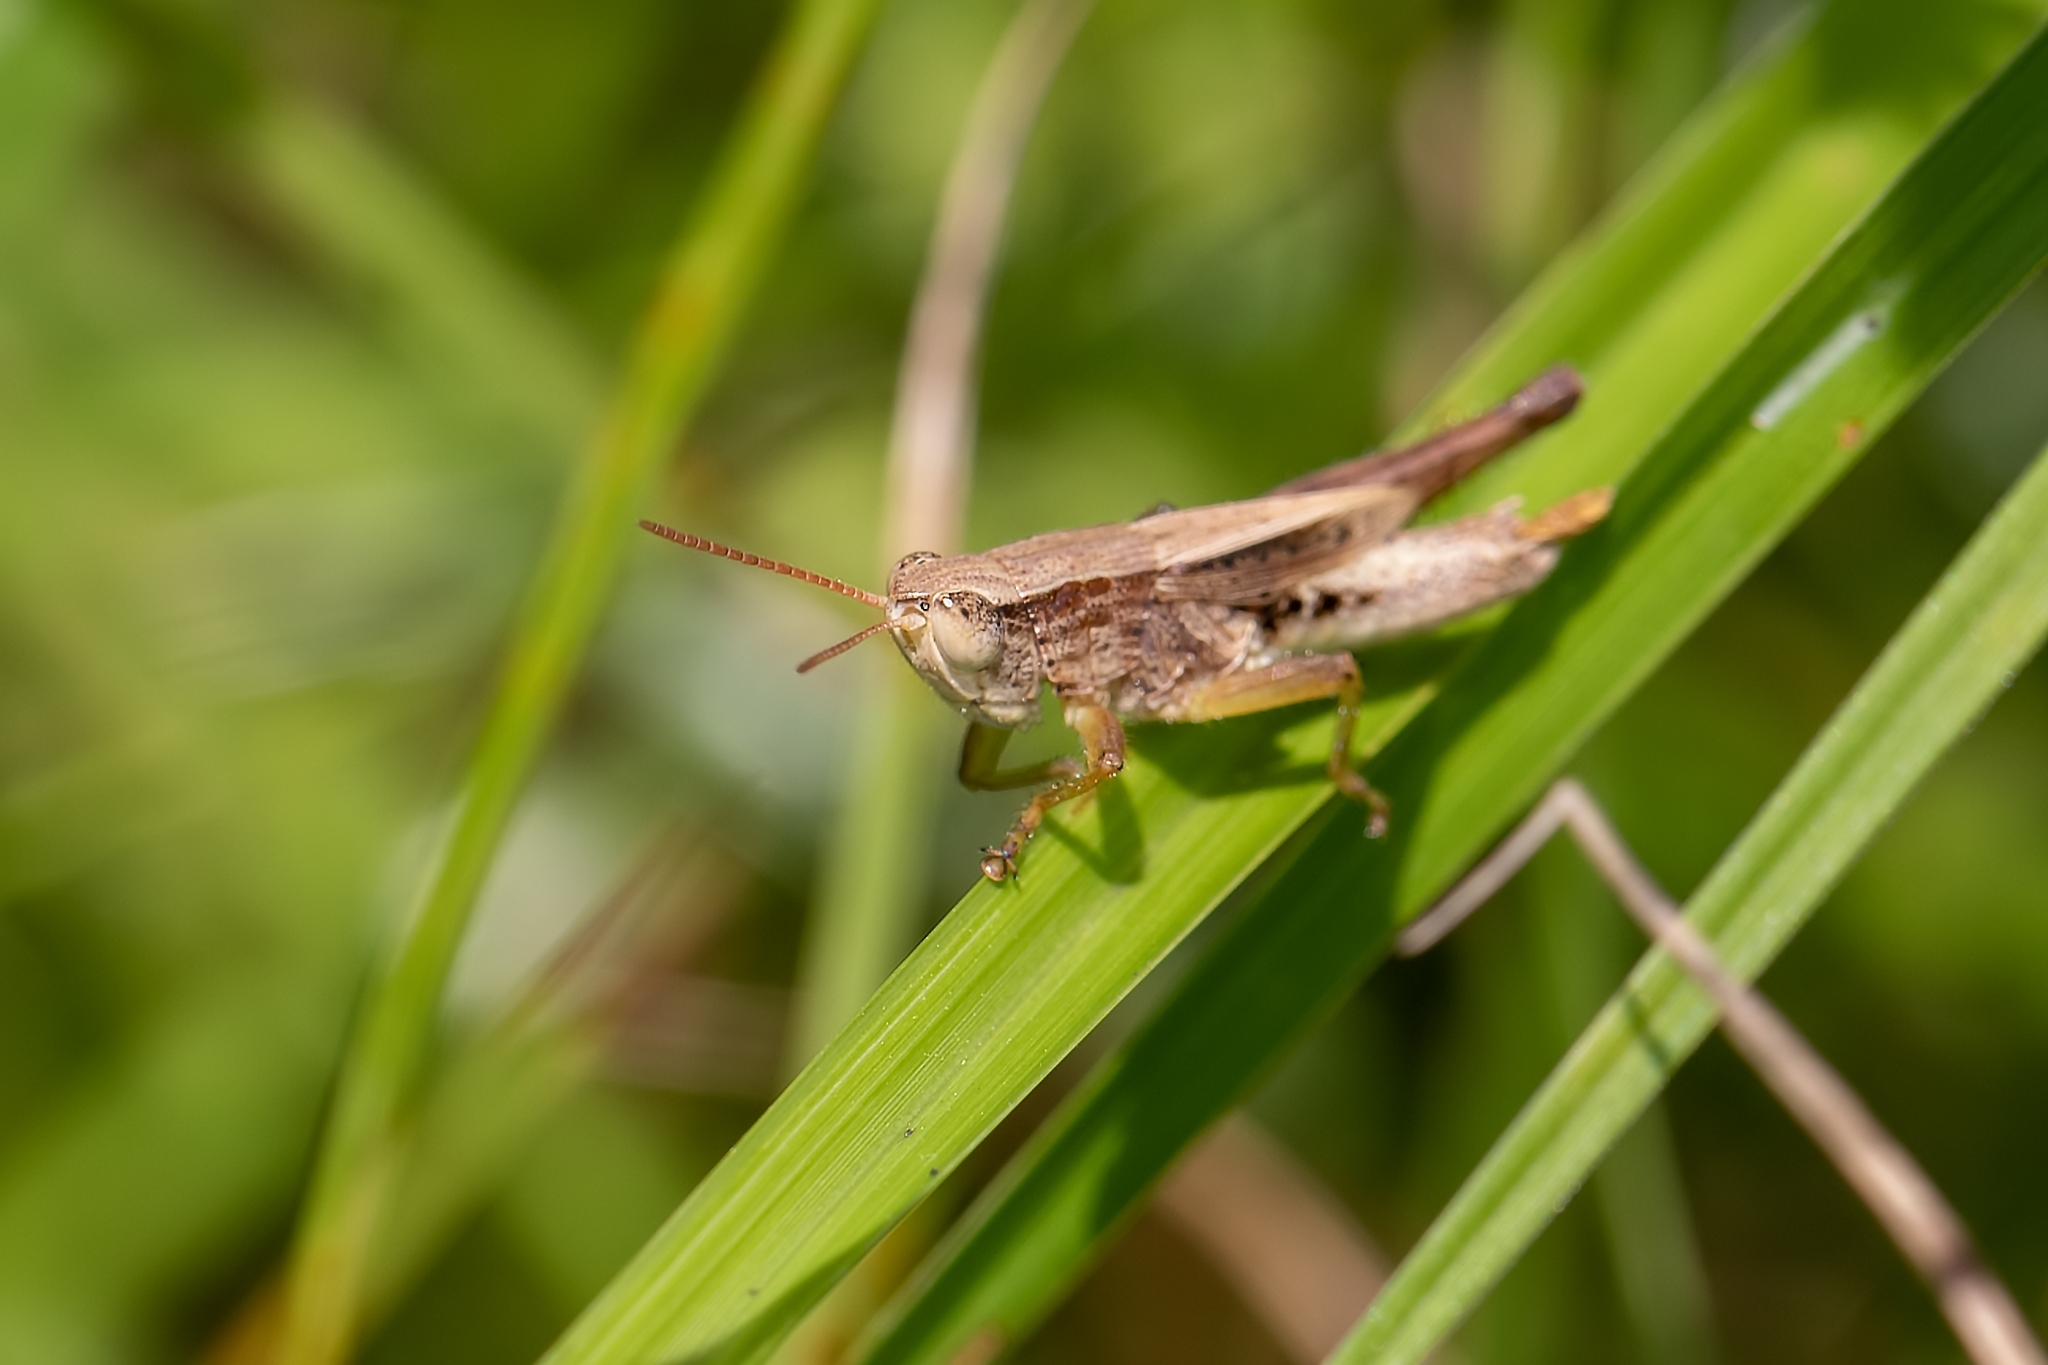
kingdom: Animalia
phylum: Arthropoda
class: Insecta
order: Orthoptera
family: Acrididae
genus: Dichromorpha
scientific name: Dichromorpha viridis
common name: Short-winged green grasshopper
